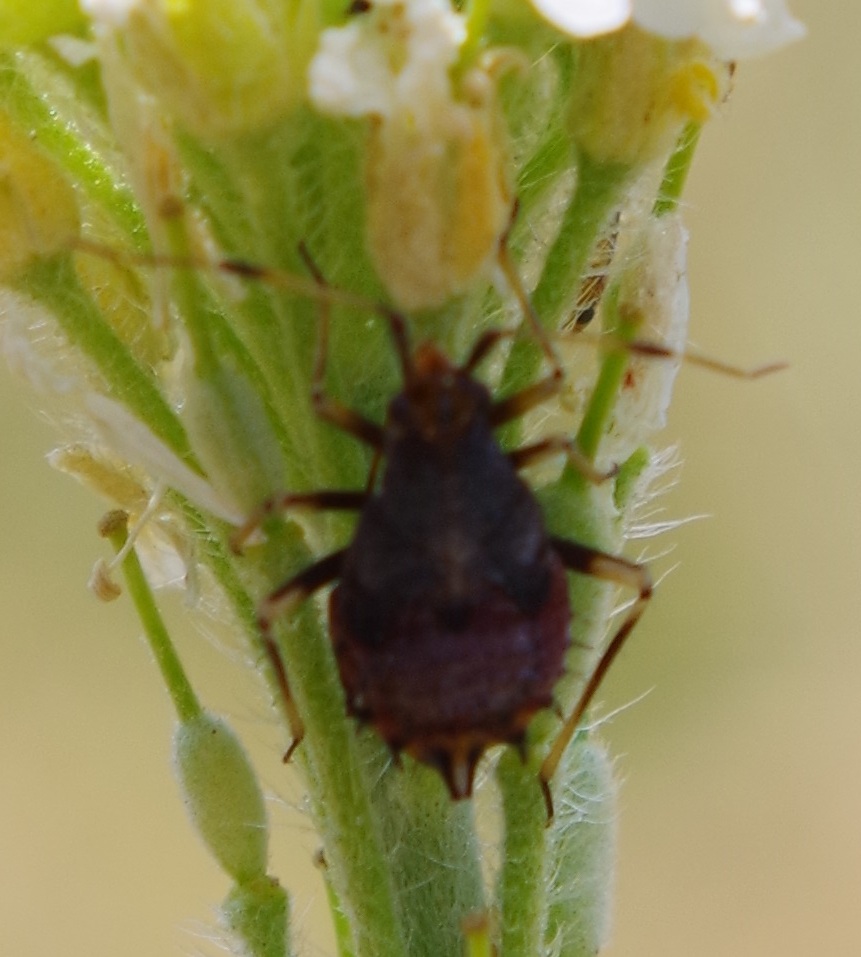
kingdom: Animalia
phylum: Arthropoda
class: Insecta
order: Hemiptera
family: Miridae
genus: Deraeocoris
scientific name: Deraeocoris ruber
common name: Plant bug
